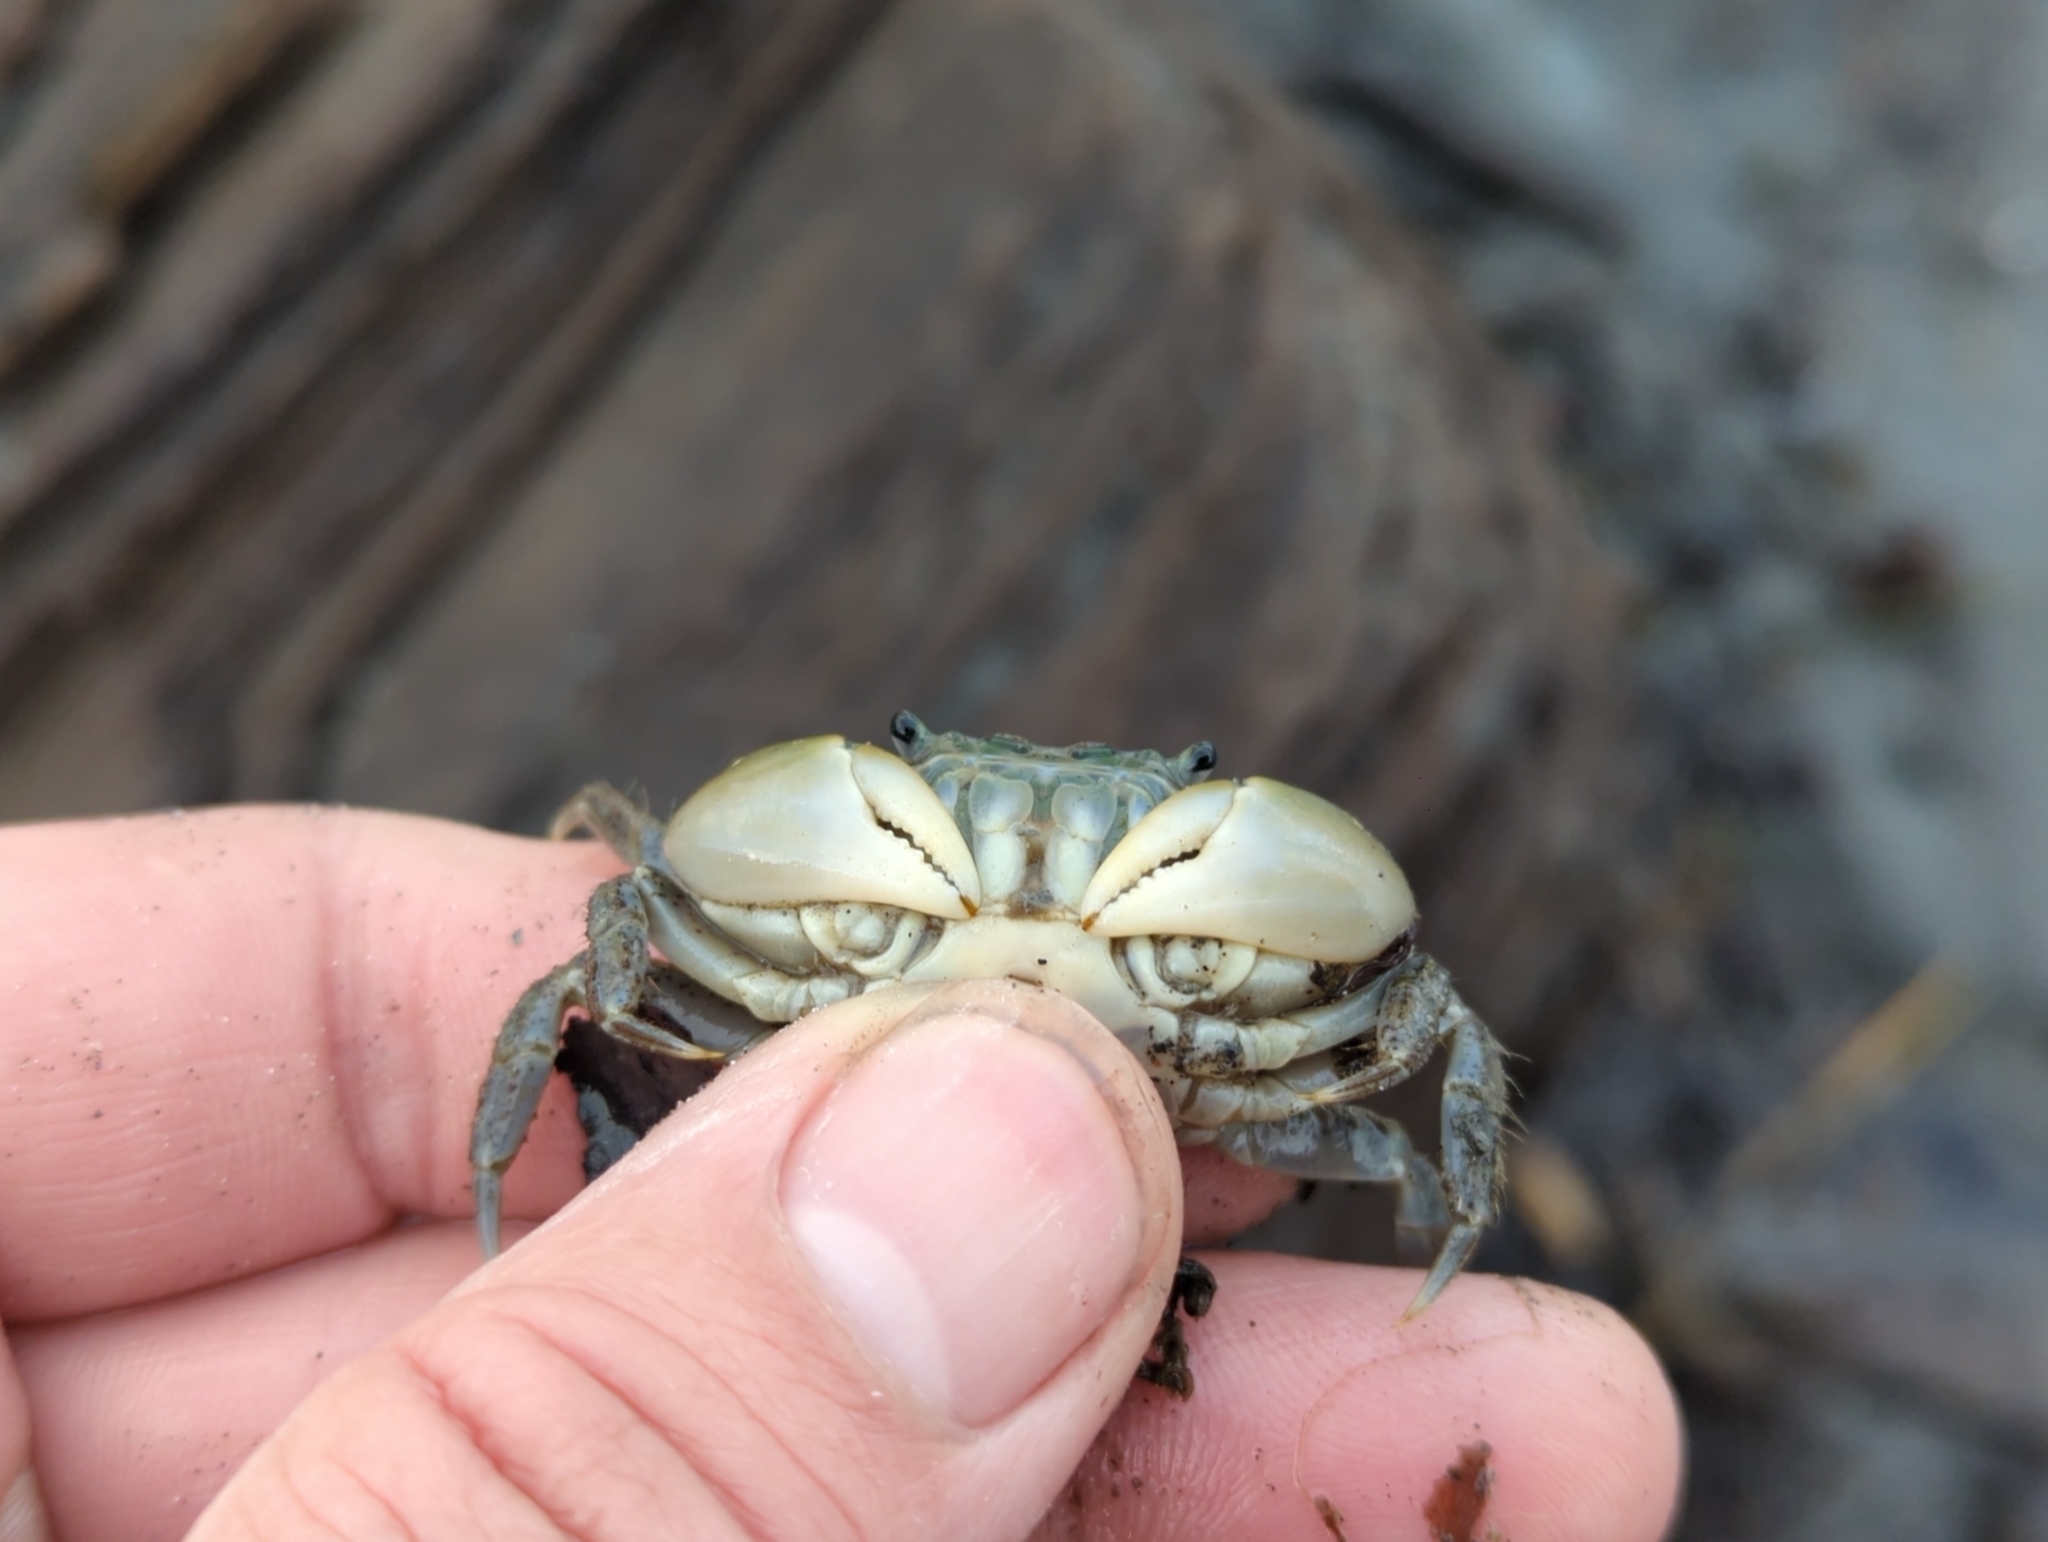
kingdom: Animalia
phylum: Arthropoda
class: Malacostraca
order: Decapoda
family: Varunidae
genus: Hemigrapsus
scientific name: Hemigrapsus oregonensis
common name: Yellow shore crab
